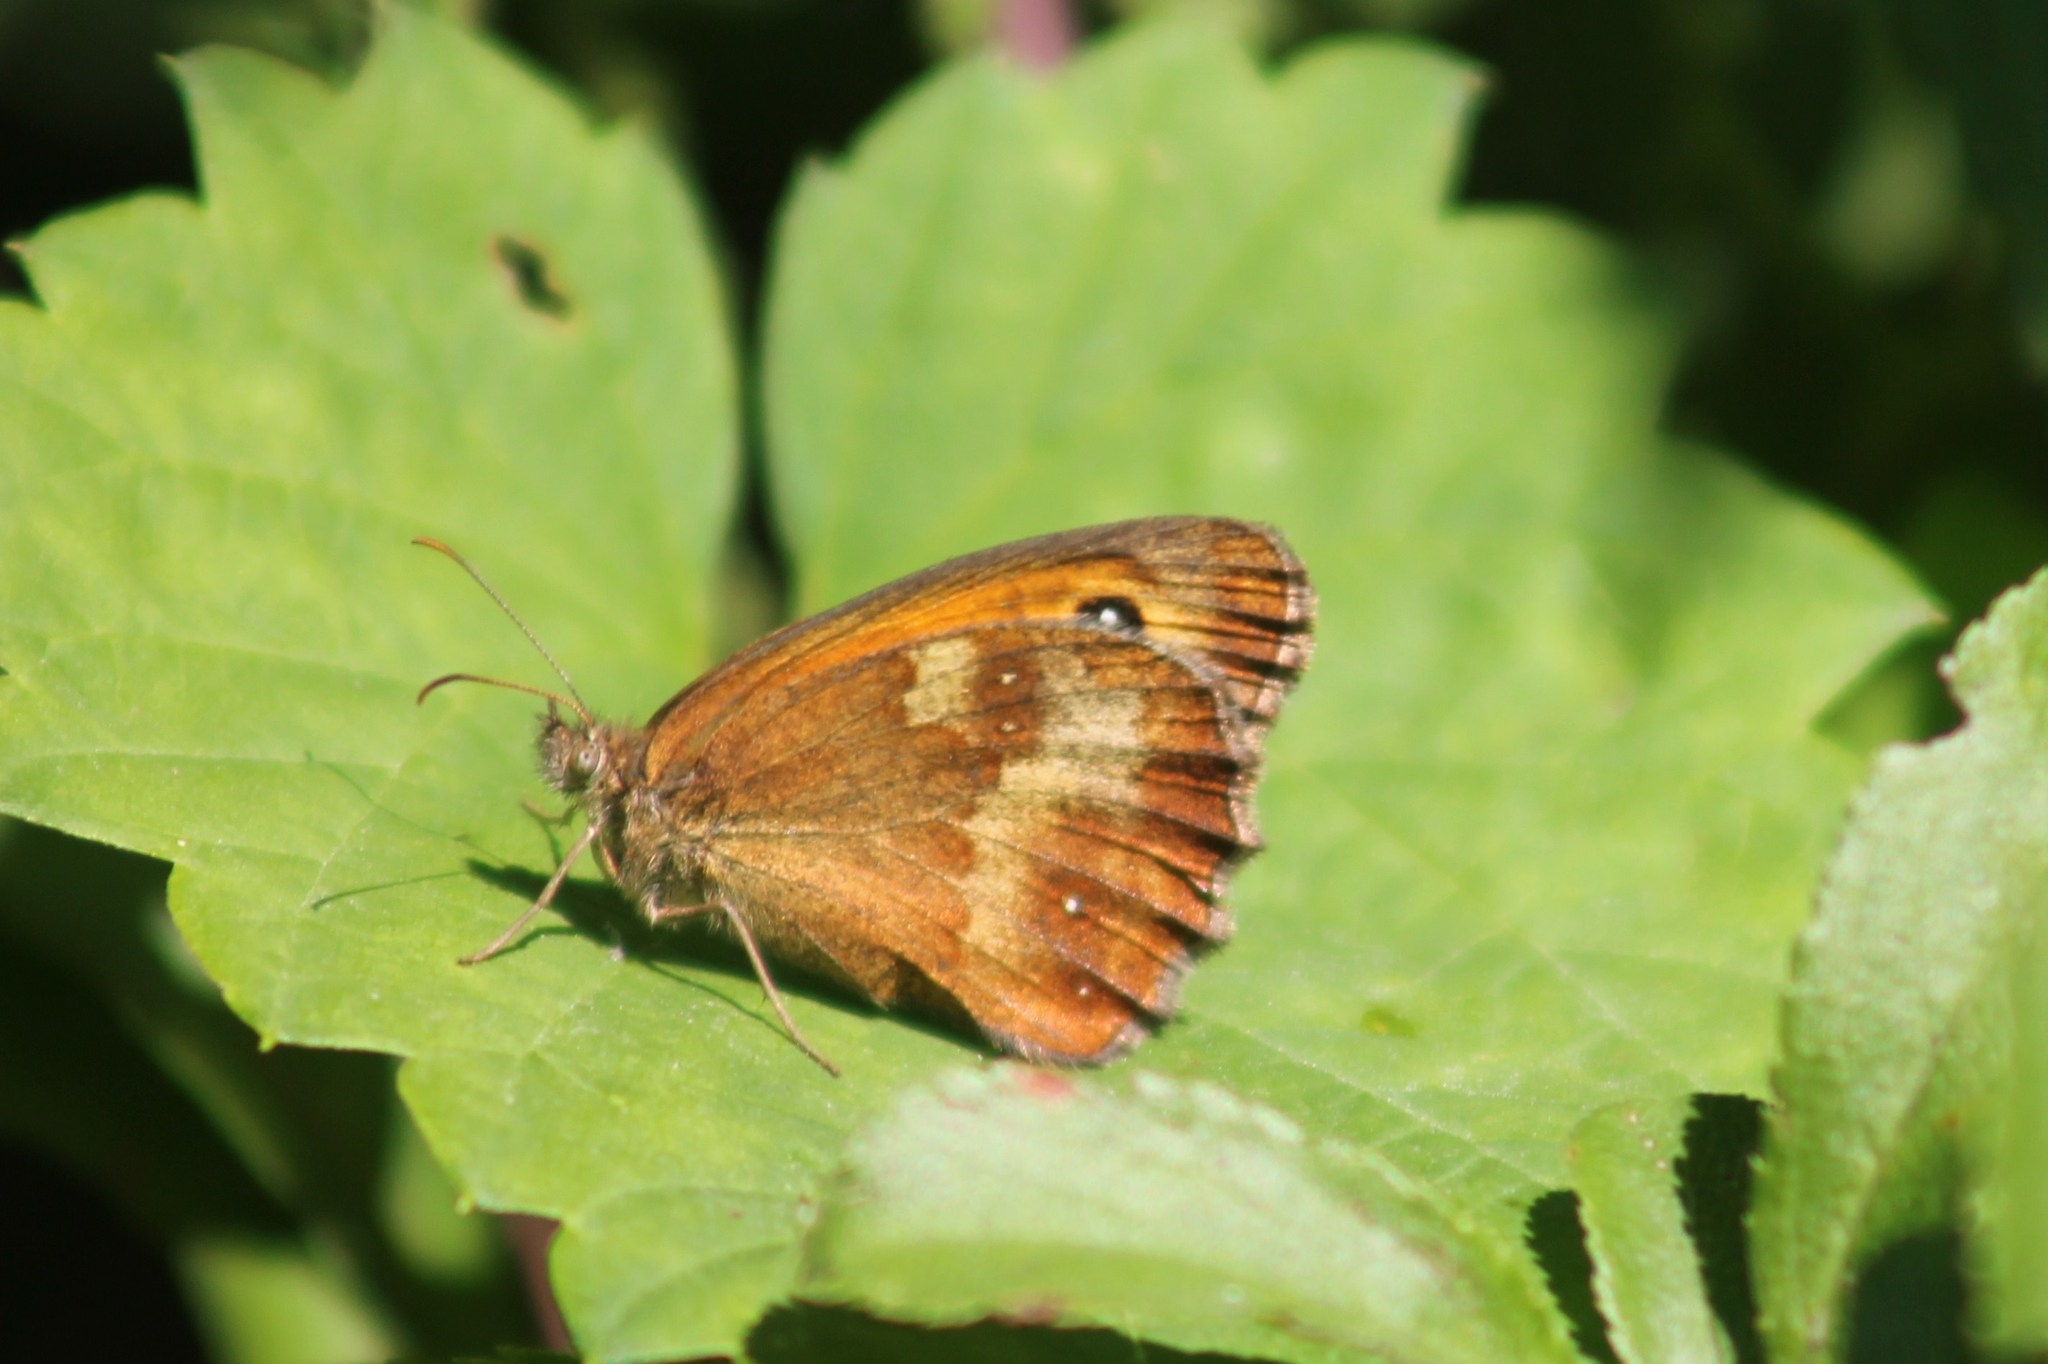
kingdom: Animalia
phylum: Arthropoda
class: Insecta
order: Lepidoptera
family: Nymphalidae
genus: Pyronia
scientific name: Pyronia tithonus
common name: Gatekeeper
